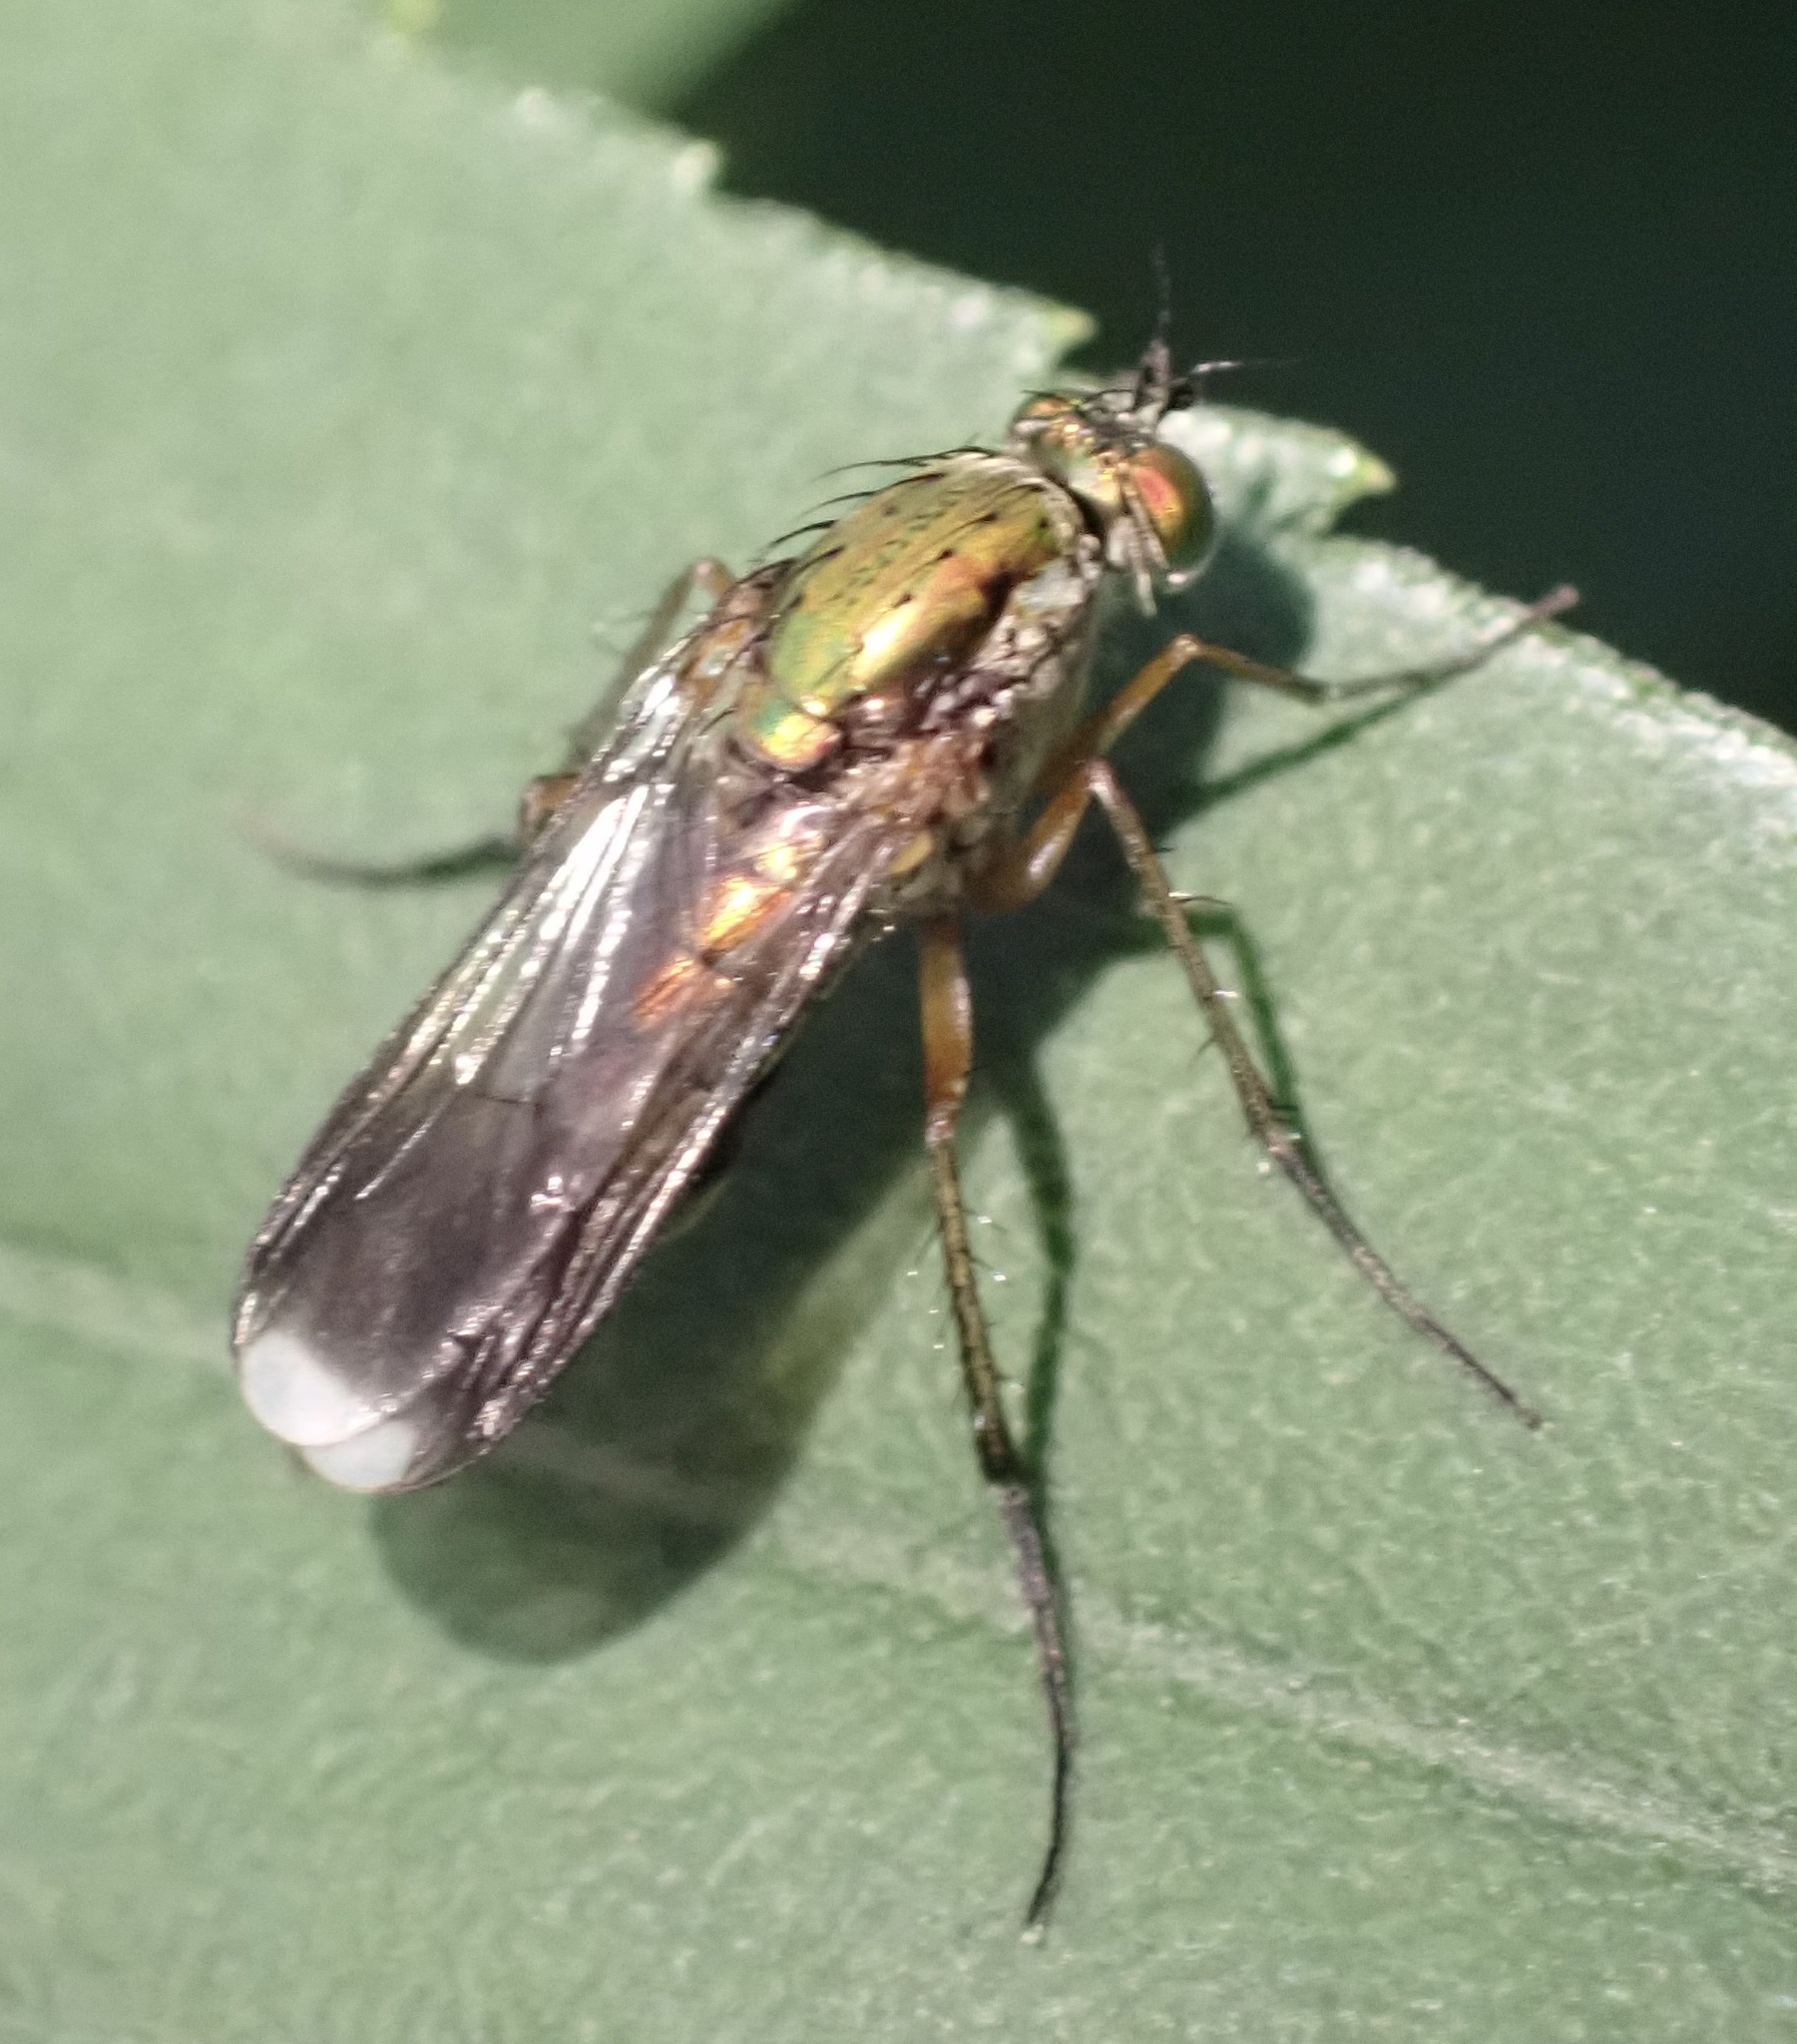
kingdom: Animalia
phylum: Arthropoda
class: Insecta
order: Diptera
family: Dolichopodidae
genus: Poecilobothrus
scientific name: Poecilobothrus nobilitatus
